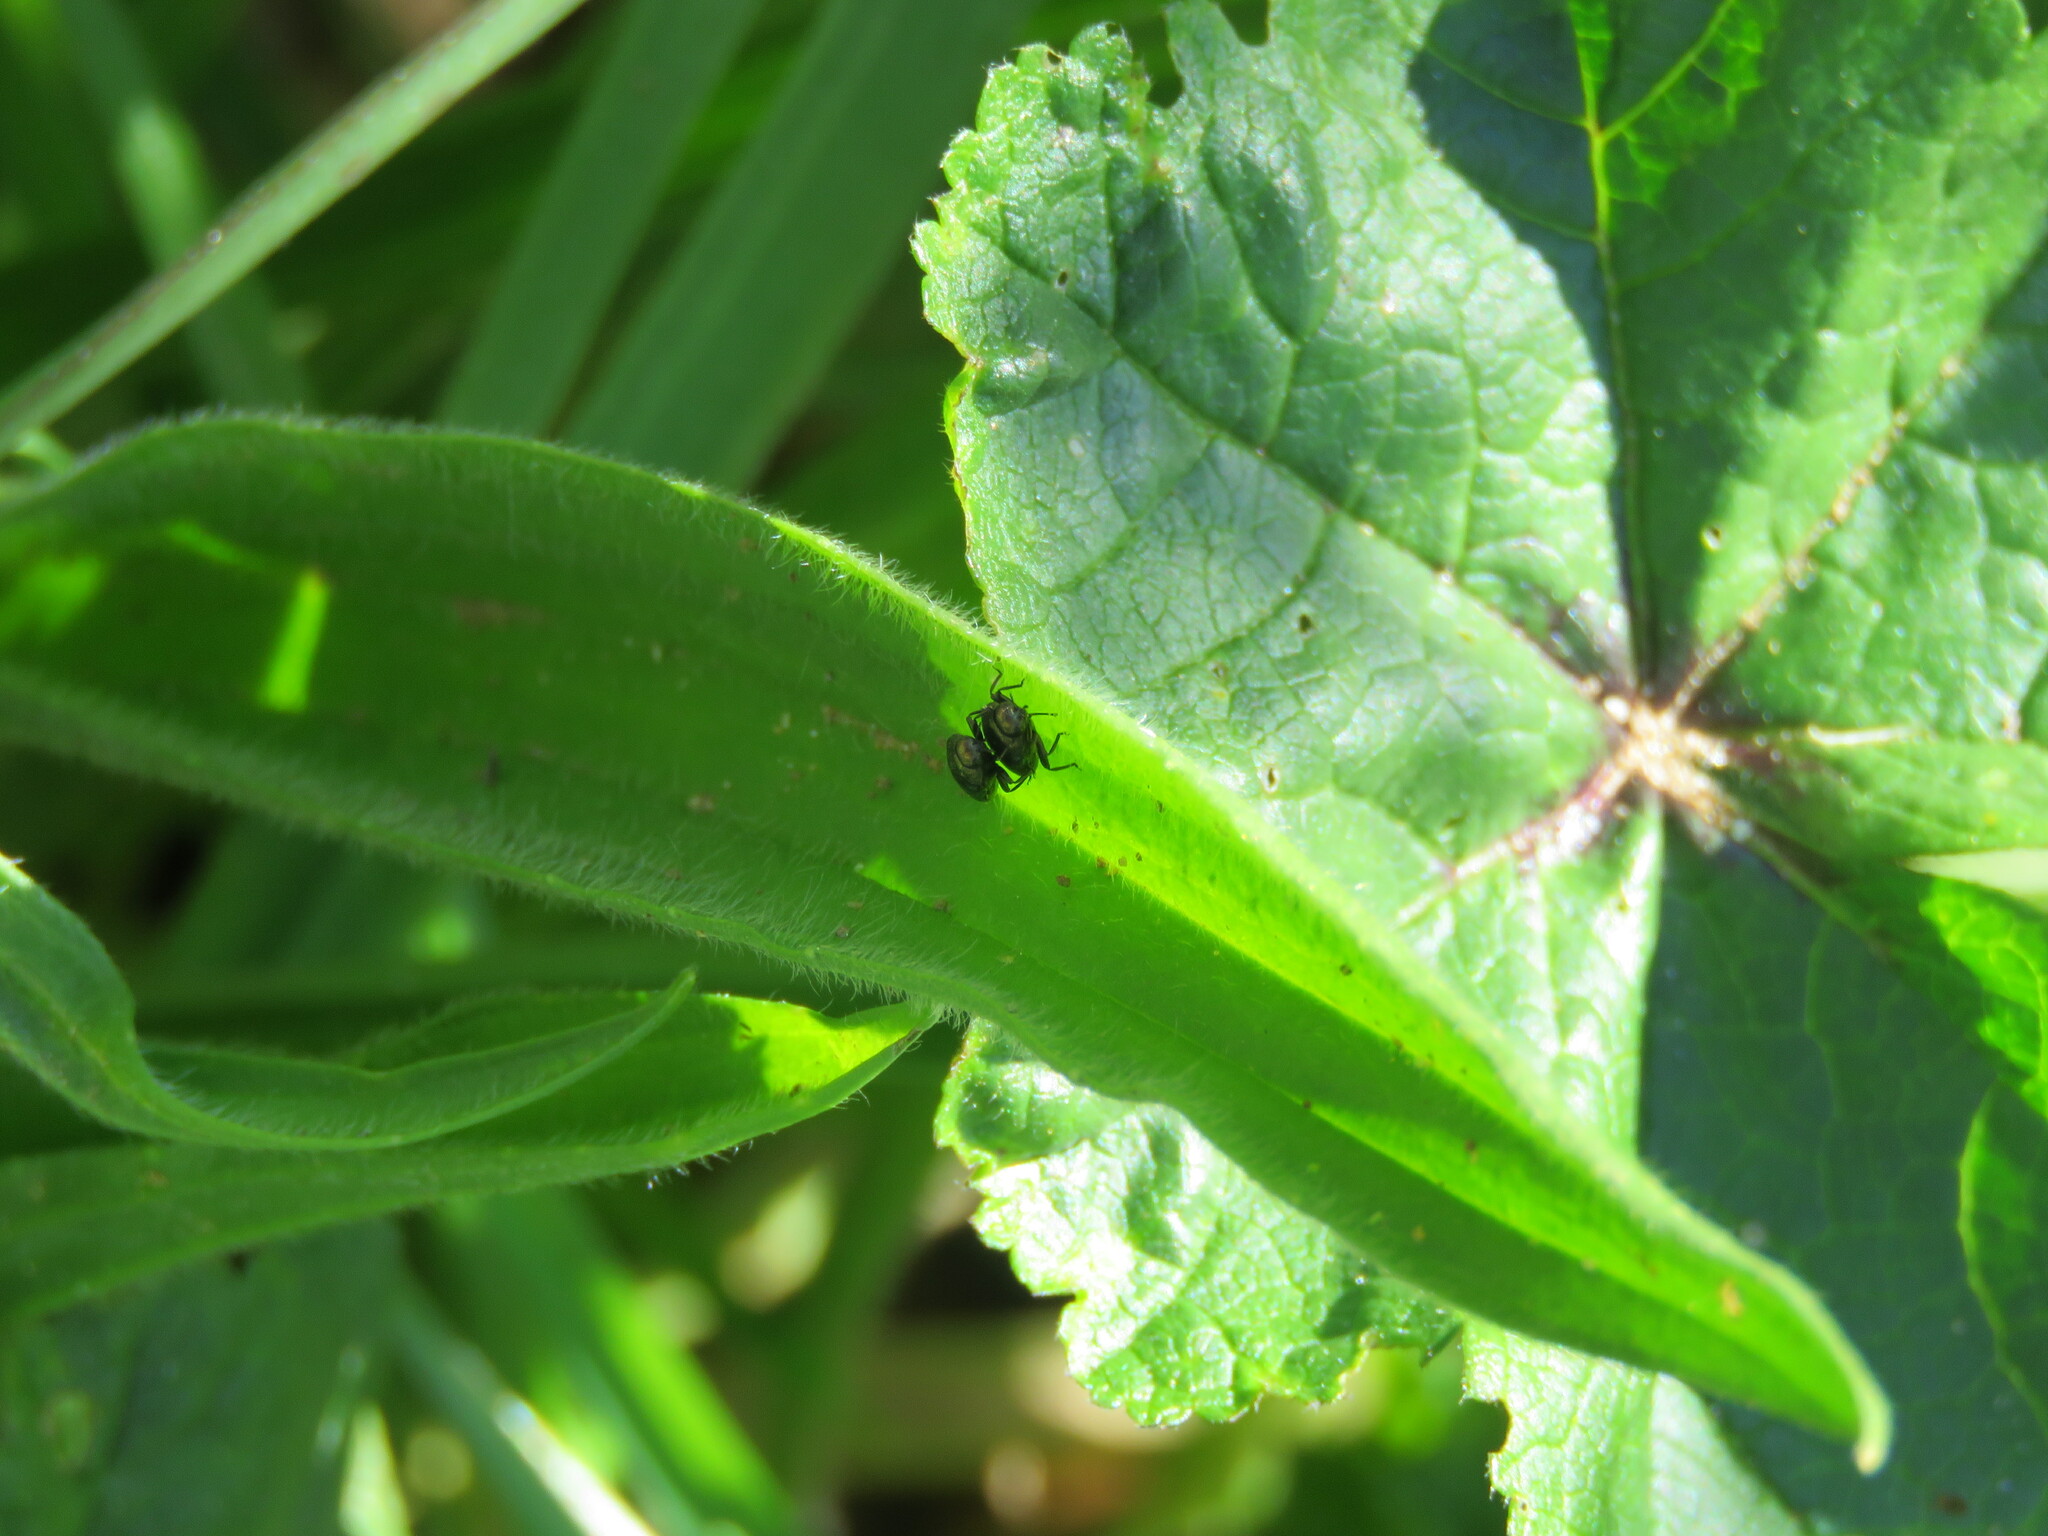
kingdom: Animalia
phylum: Arthropoda
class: Insecta
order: Coleoptera
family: Buprestidae
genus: Trachys
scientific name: Trachys troglodytiformis
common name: Metallic wood-boring beetle
